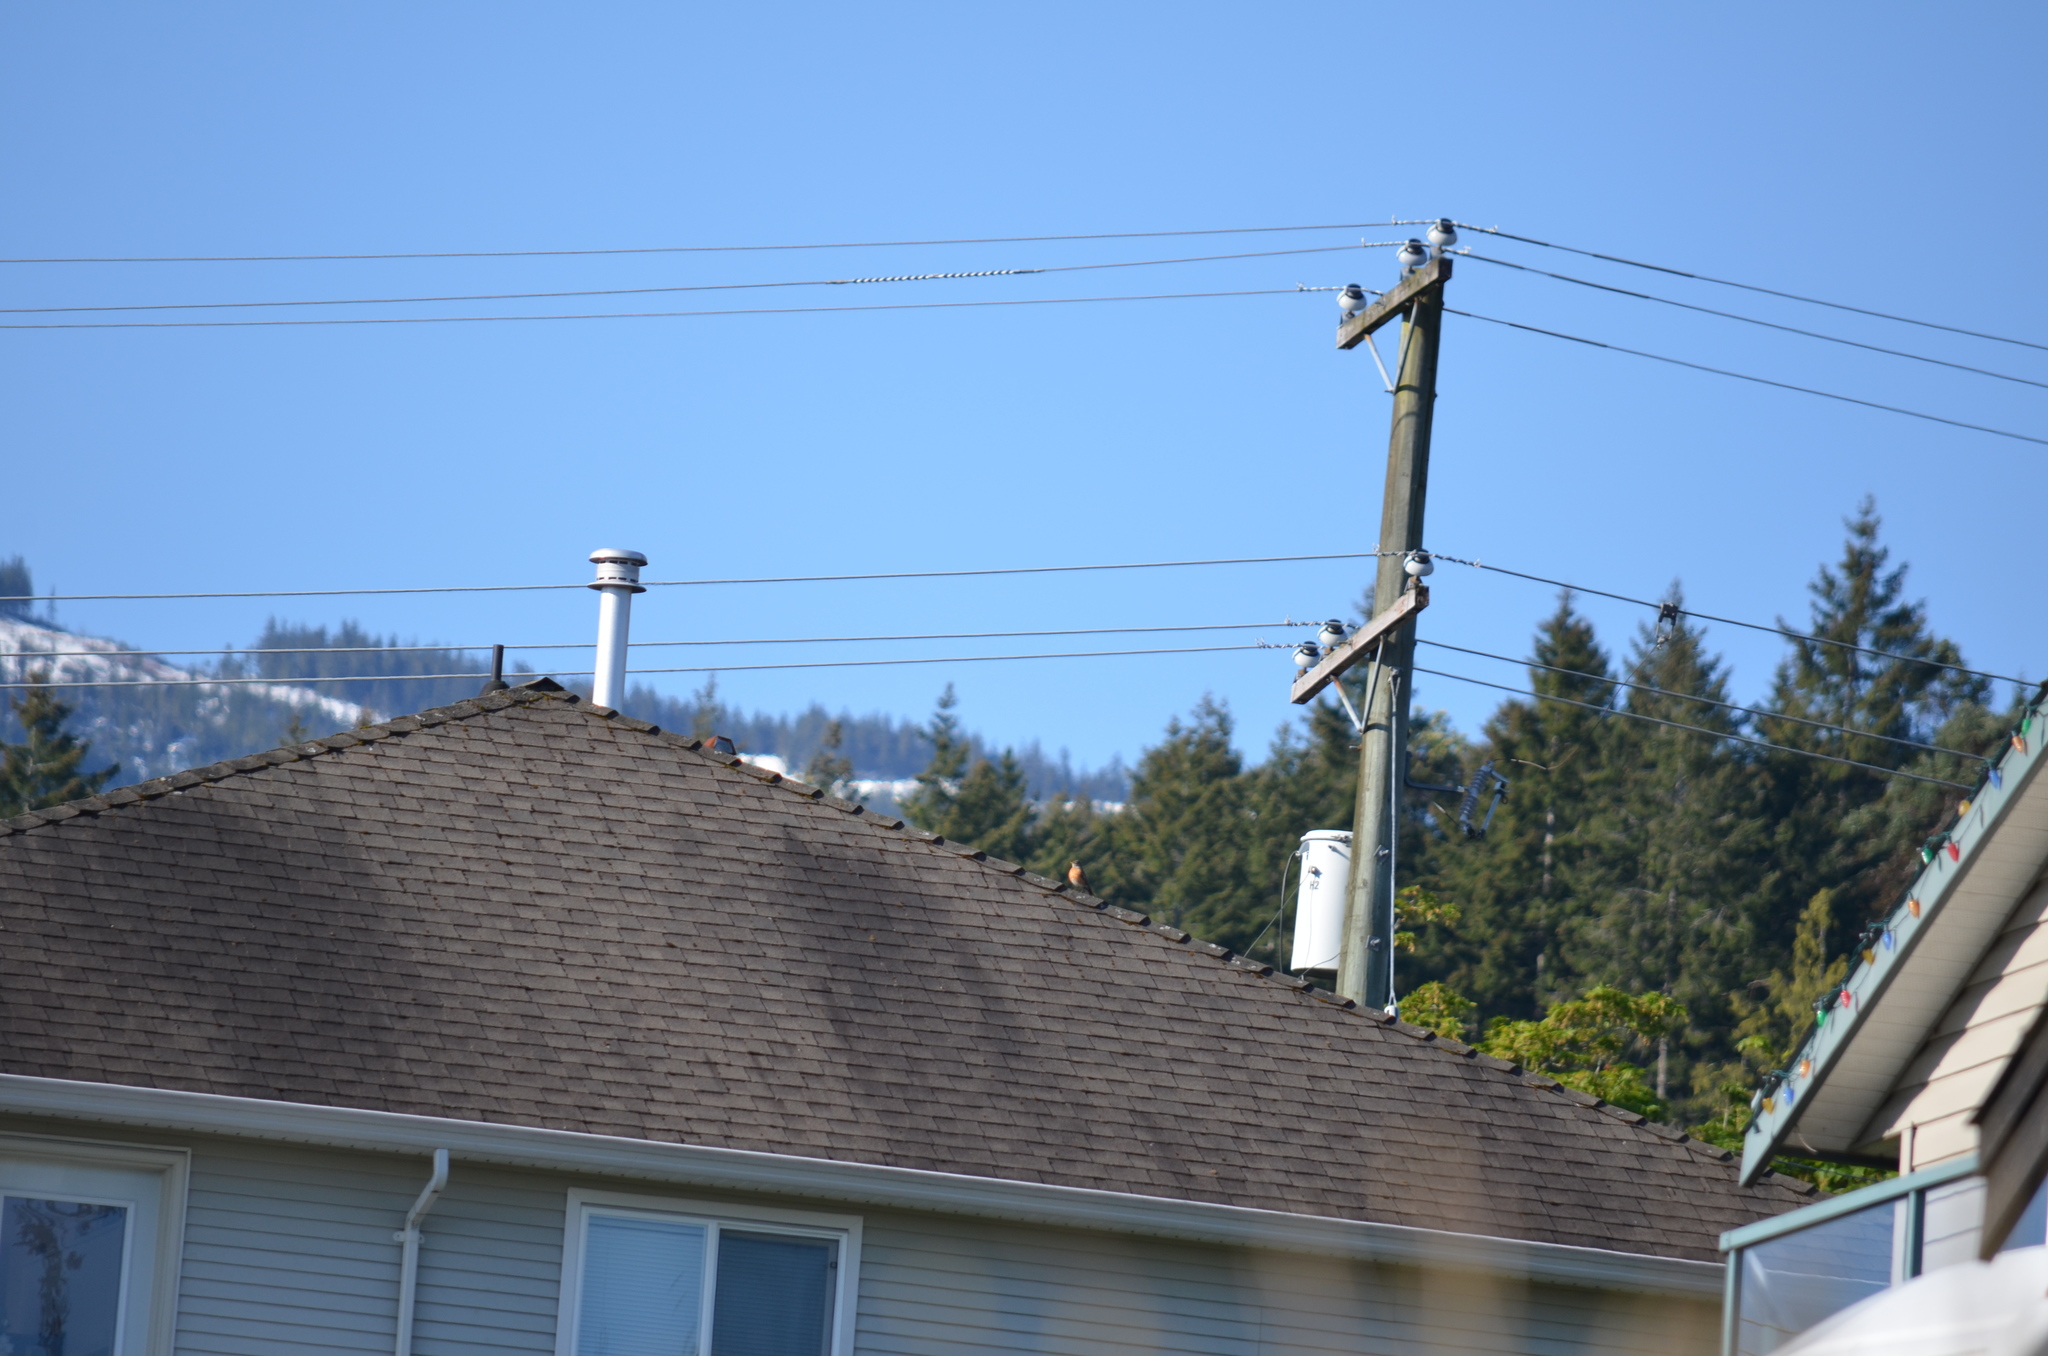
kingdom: Animalia
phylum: Chordata
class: Aves
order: Passeriformes
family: Turdidae
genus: Turdus
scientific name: Turdus migratorius
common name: American robin
